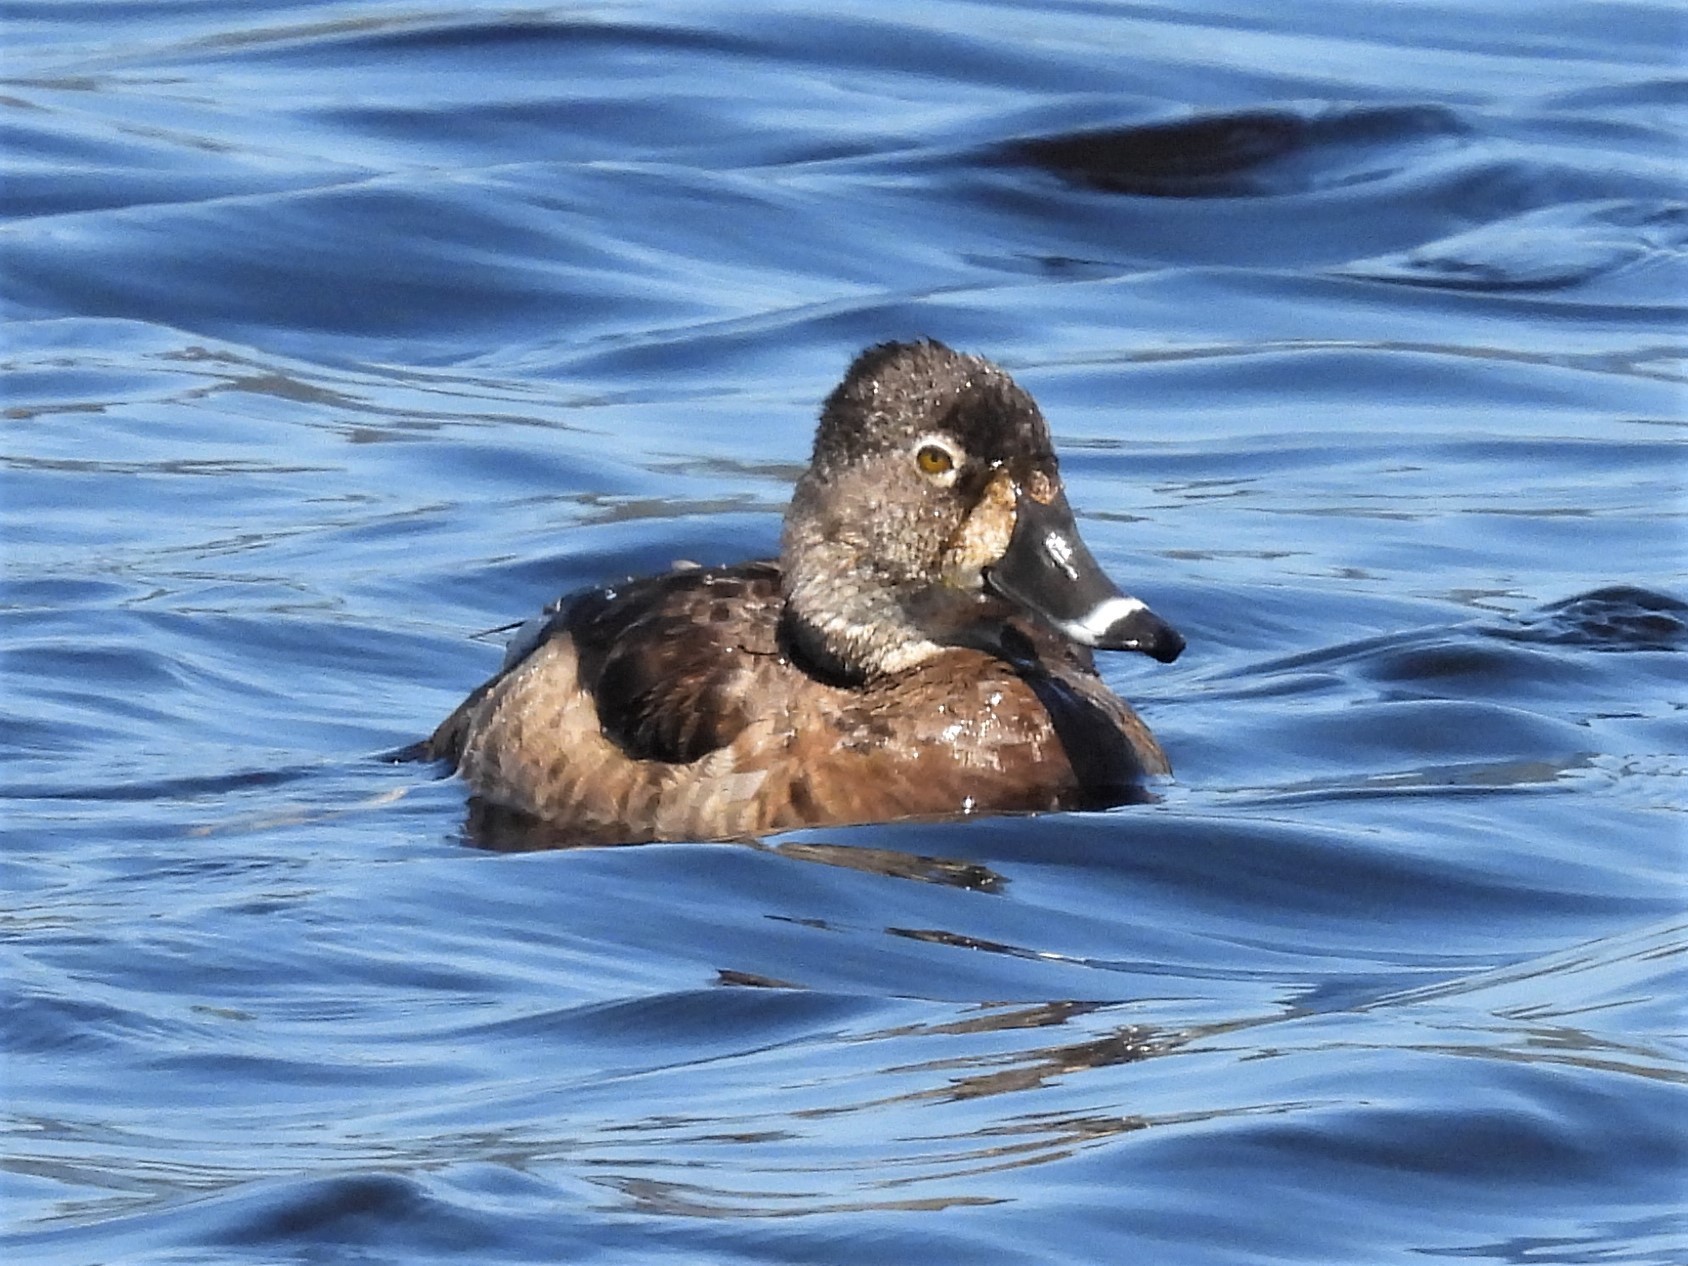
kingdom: Animalia
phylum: Chordata
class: Aves
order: Anseriformes
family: Anatidae
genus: Aythya
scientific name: Aythya collaris
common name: Ring-necked duck
